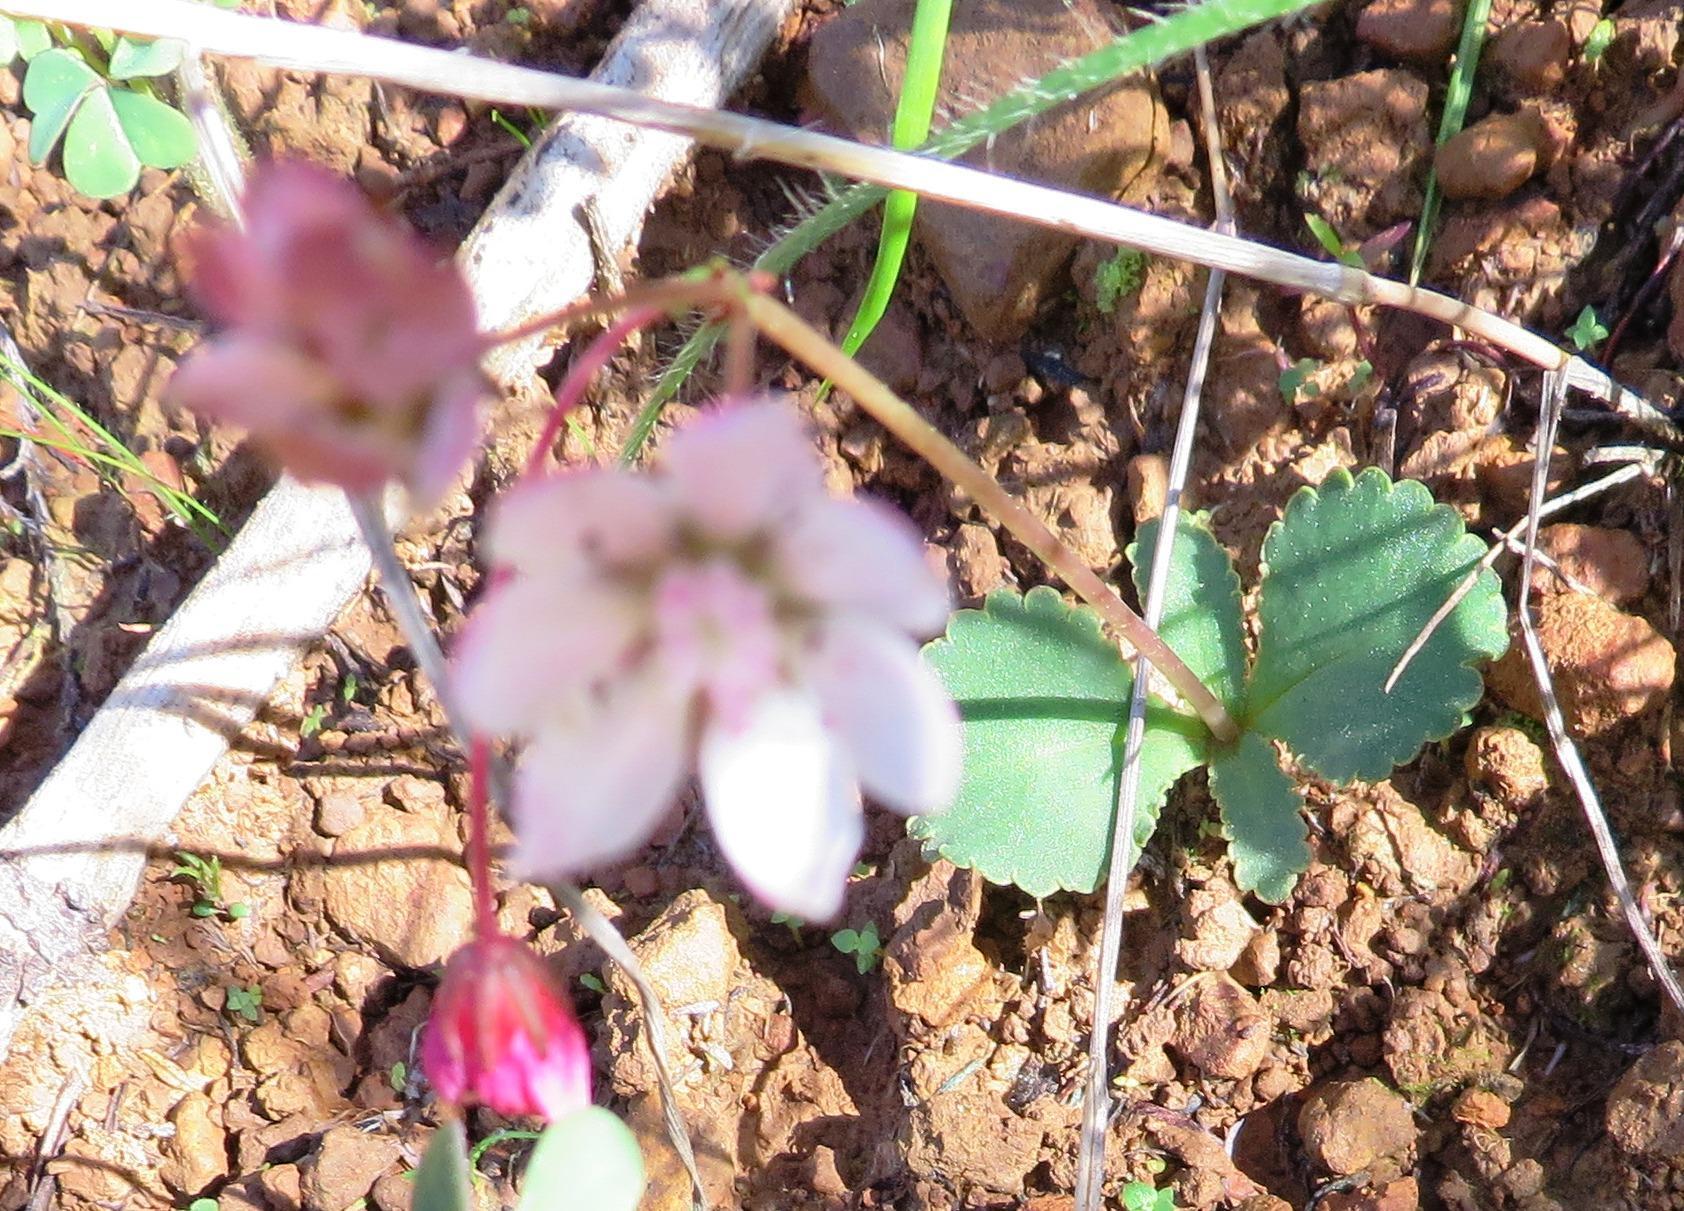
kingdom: Plantae
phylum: Tracheophyta
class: Magnoliopsida
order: Saxifragales
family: Crassulaceae
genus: Crassula
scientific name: Crassula capensis
